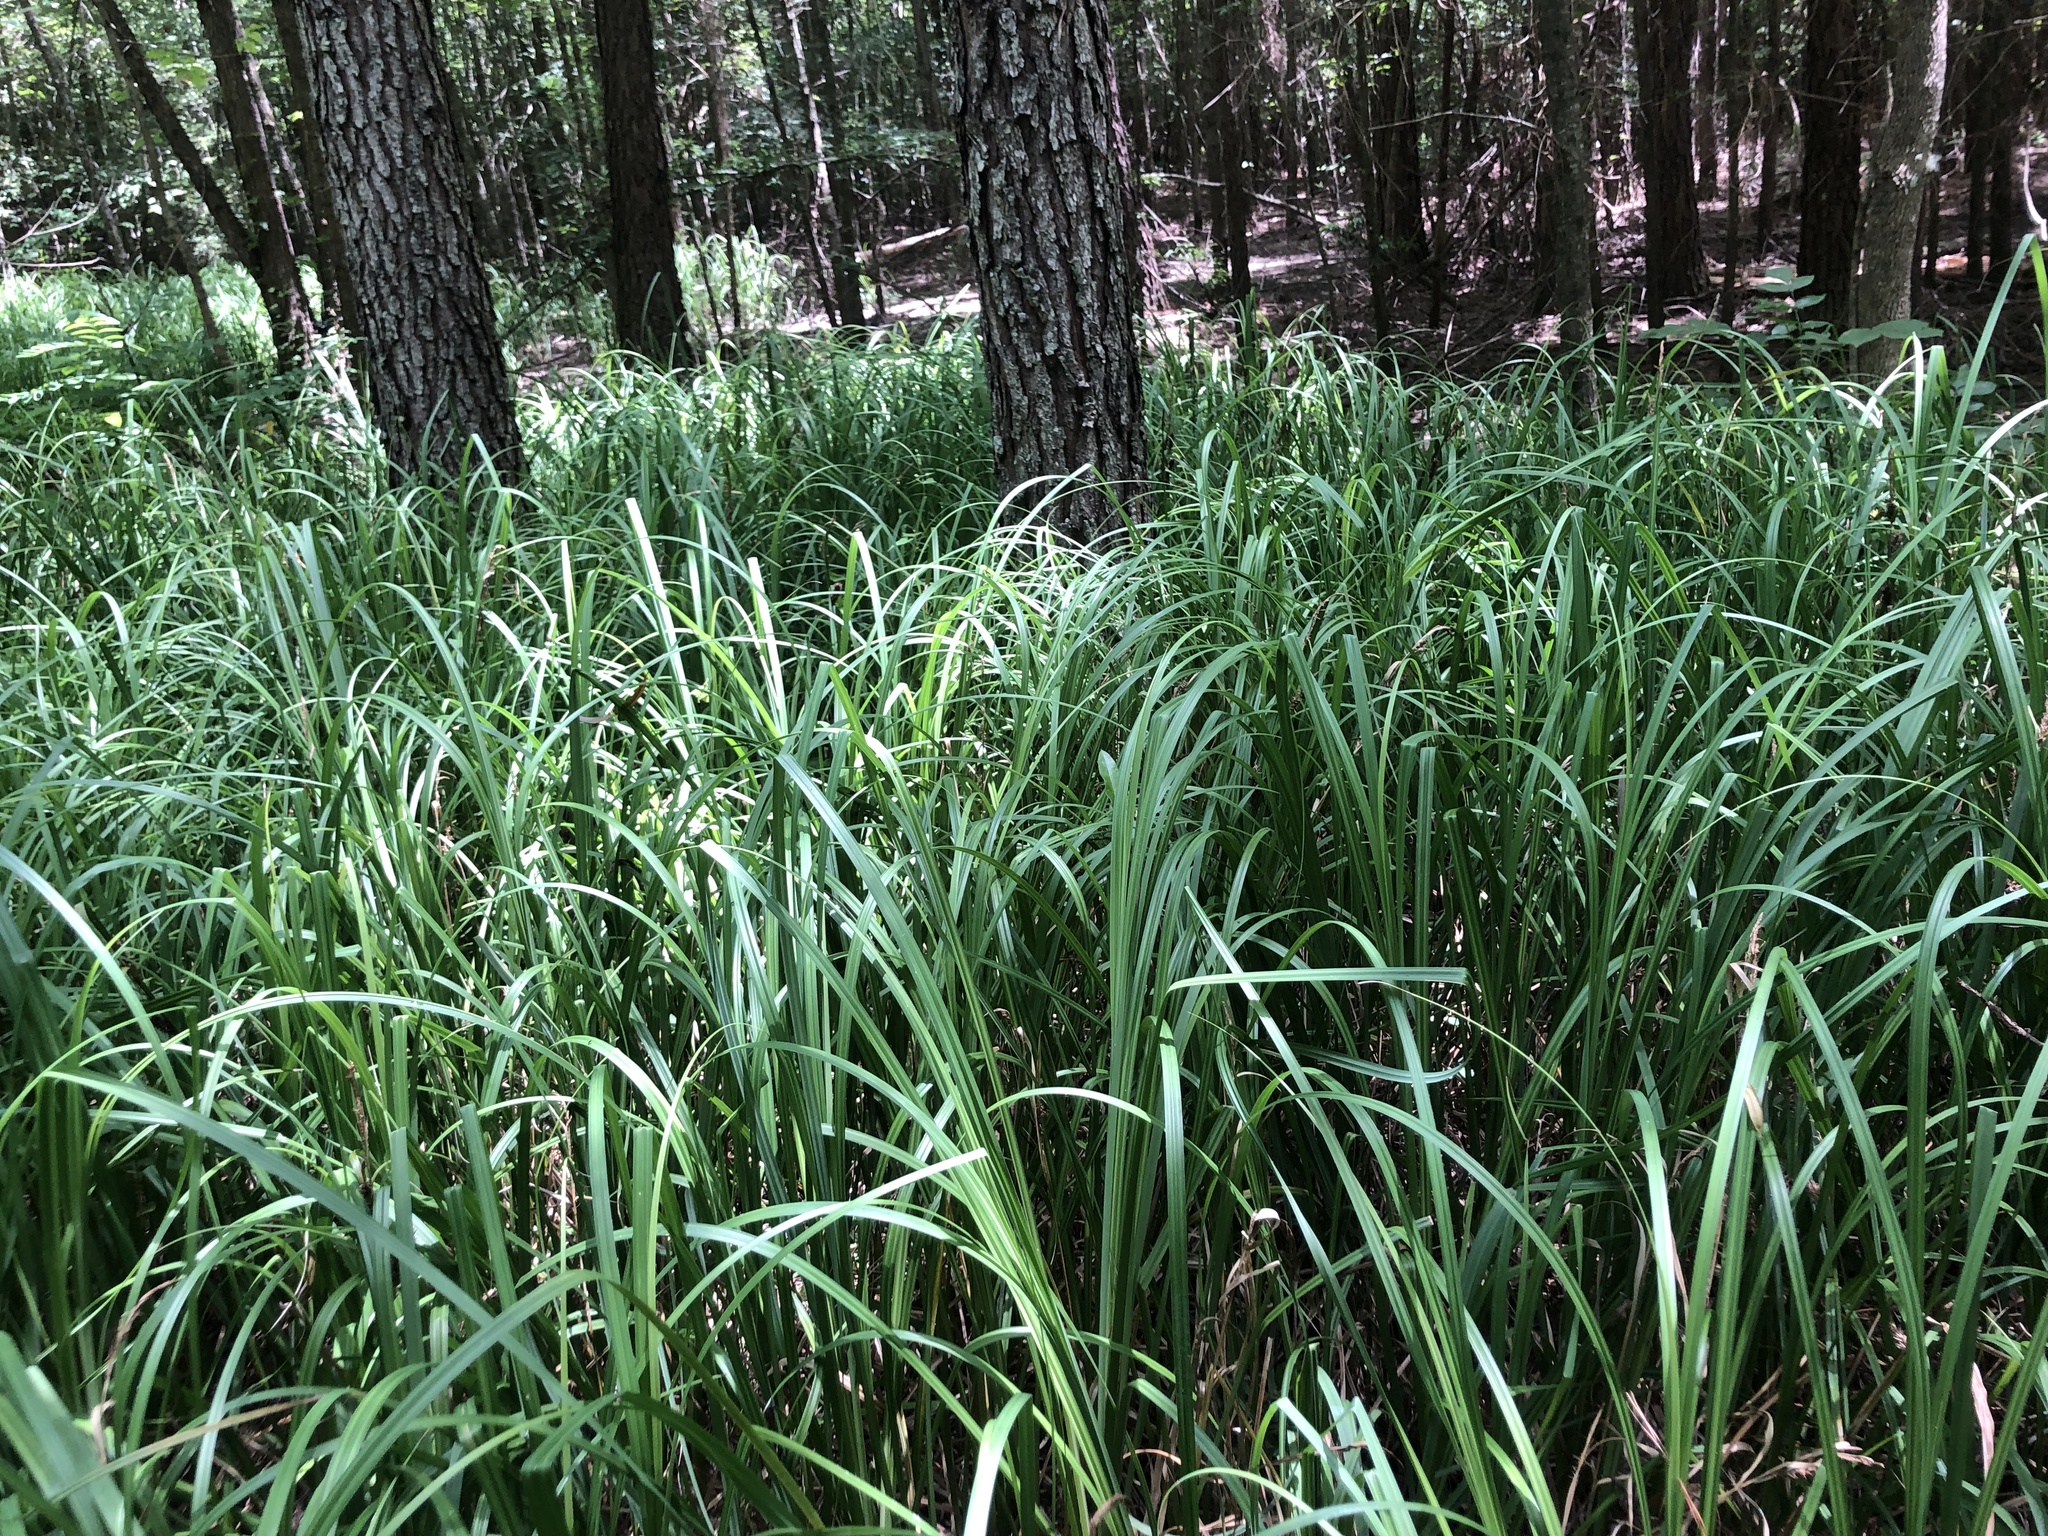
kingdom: Plantae
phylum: Tracheophyta
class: Liliopsida
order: Poales
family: Cyperaceae
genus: Carex
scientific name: Carex hyalinolepis
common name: Shoreline sedge
